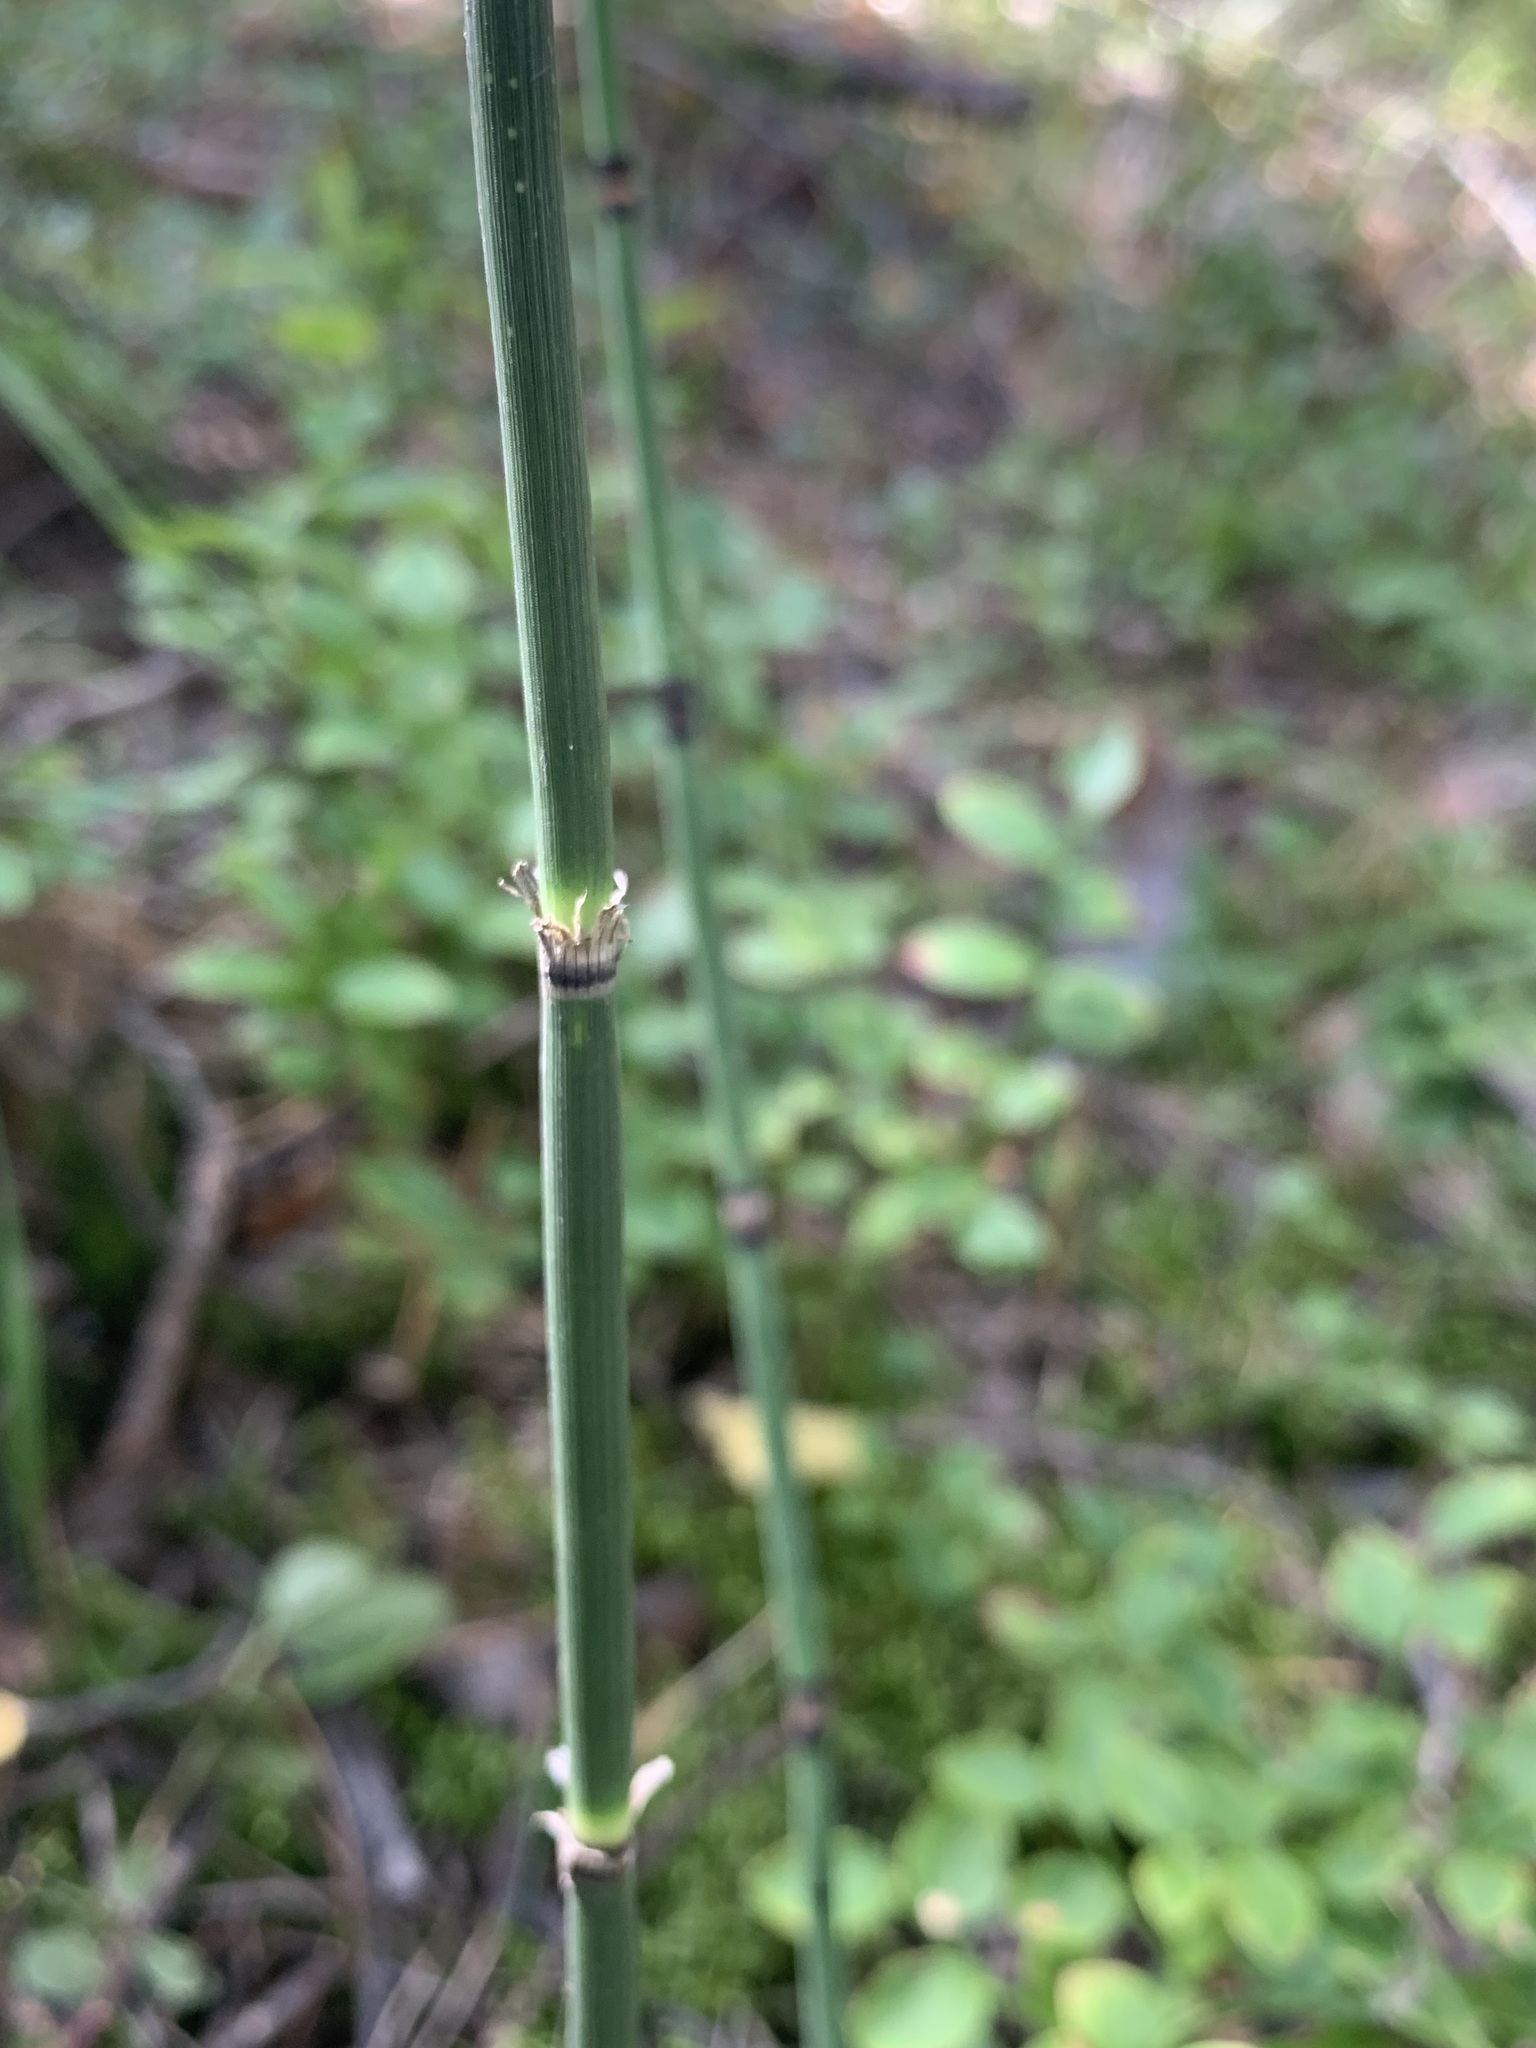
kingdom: Plantae
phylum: Tracheophyta
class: Polypodiopsida
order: Equisetales
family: Equisetaceae
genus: Equisetum
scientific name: Equisetum hyemale
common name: Rough horsetail
